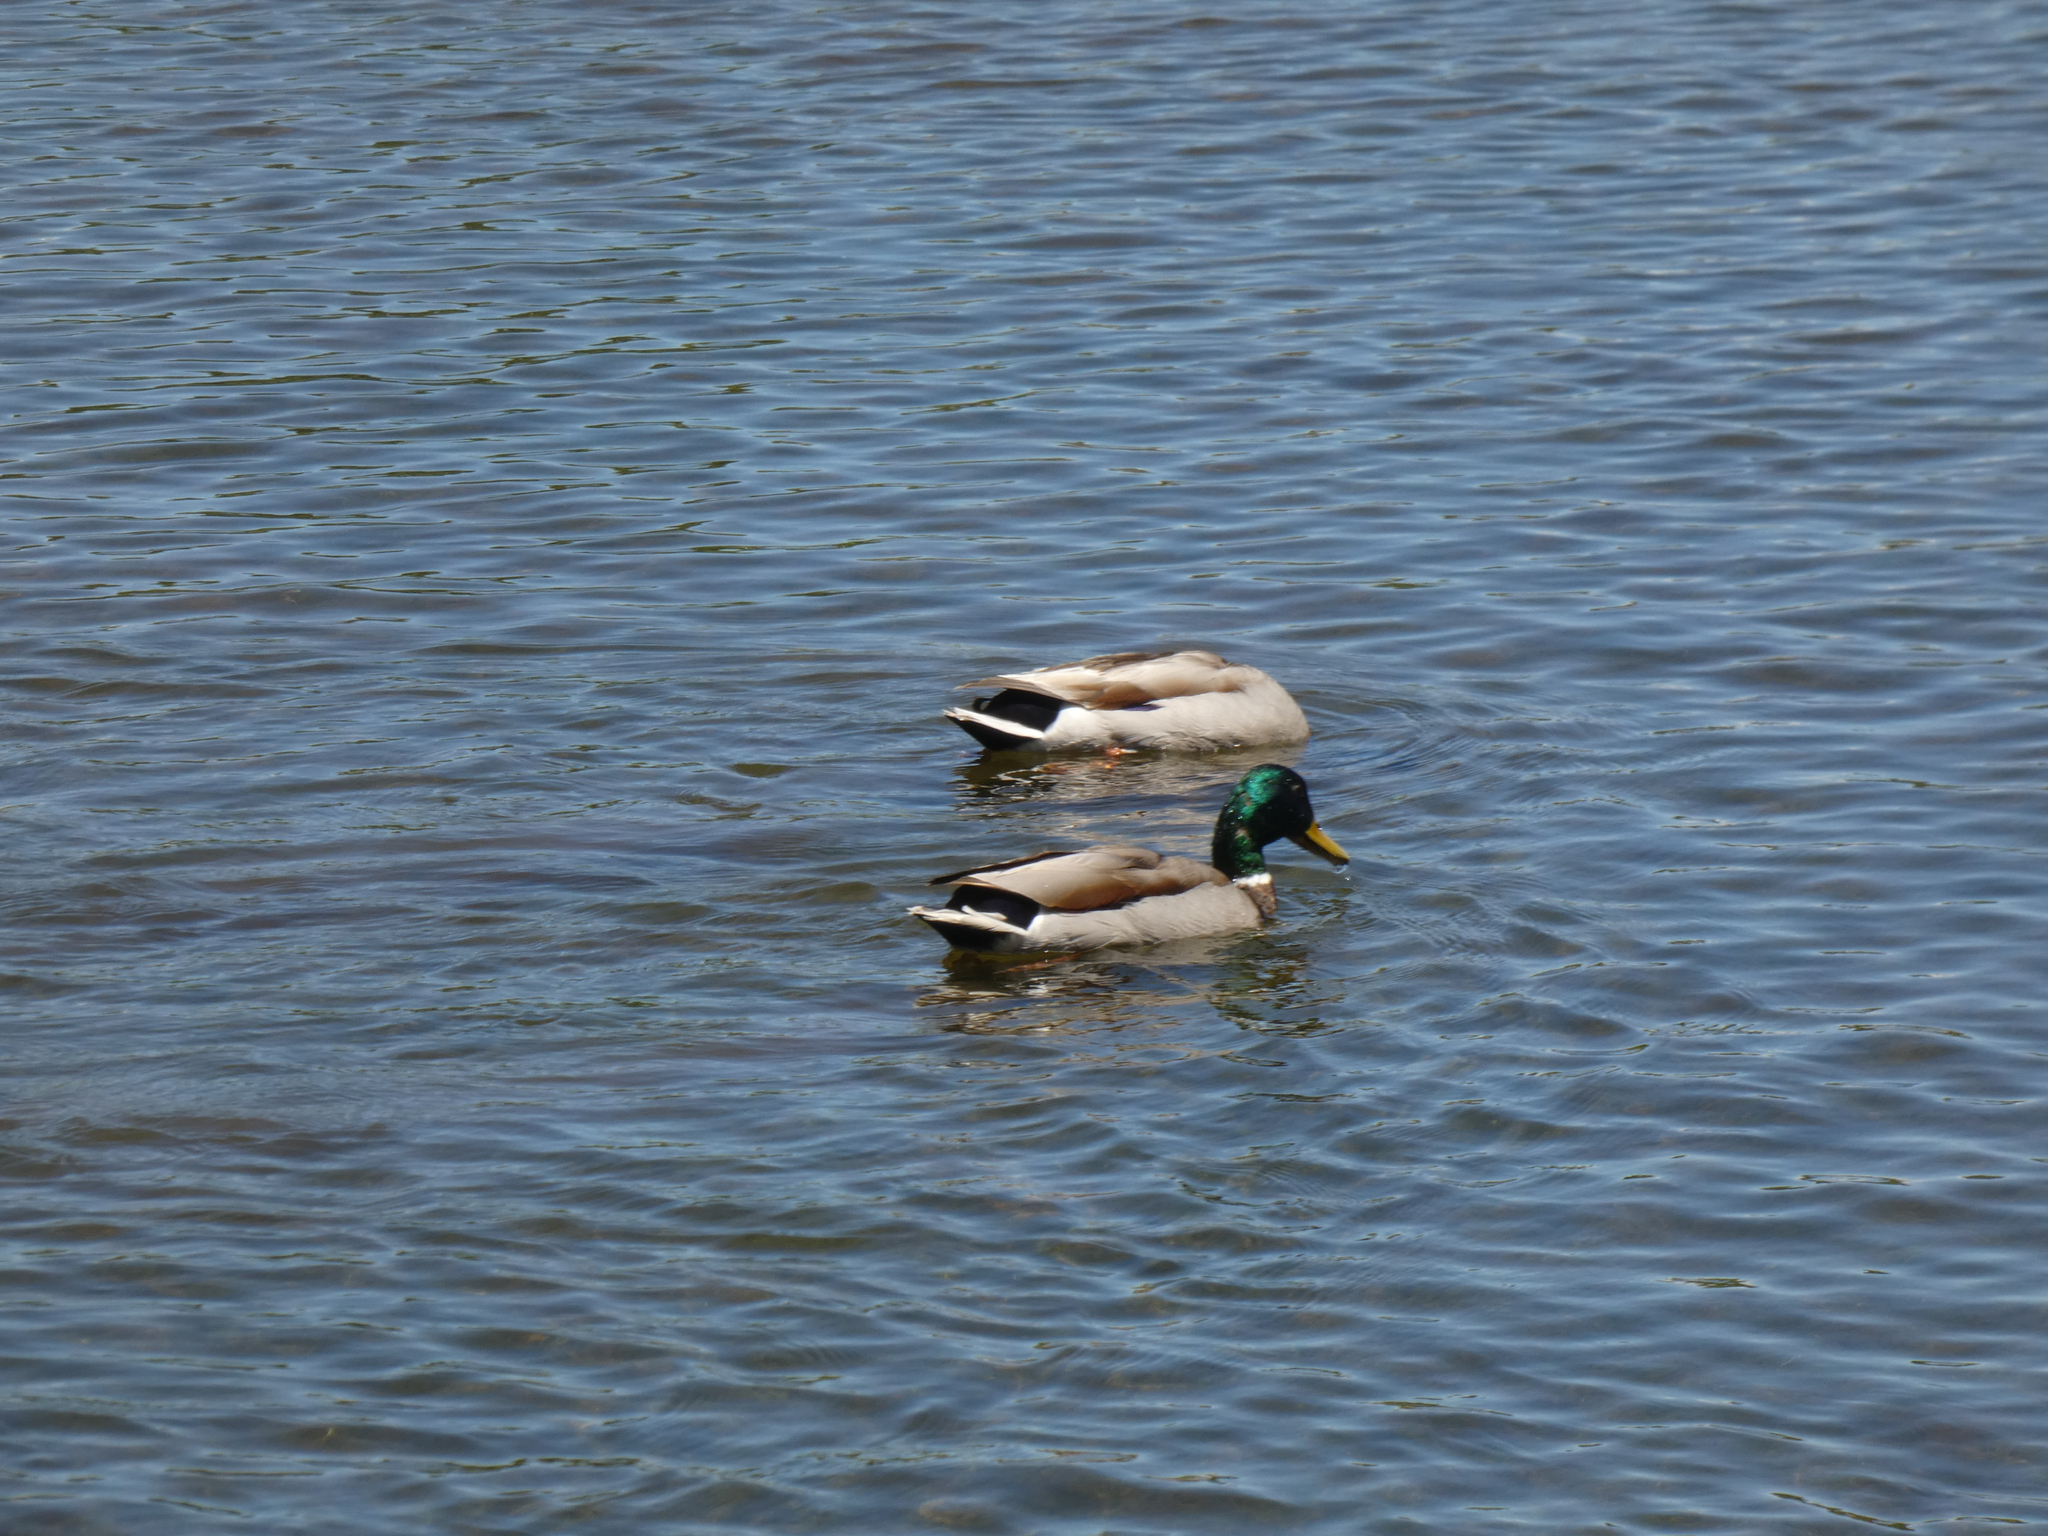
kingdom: Animalia
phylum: Chordata
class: Aves
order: Anseriformes
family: Anatidae
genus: Anas
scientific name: Anas platyrhynchos
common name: Mallard
